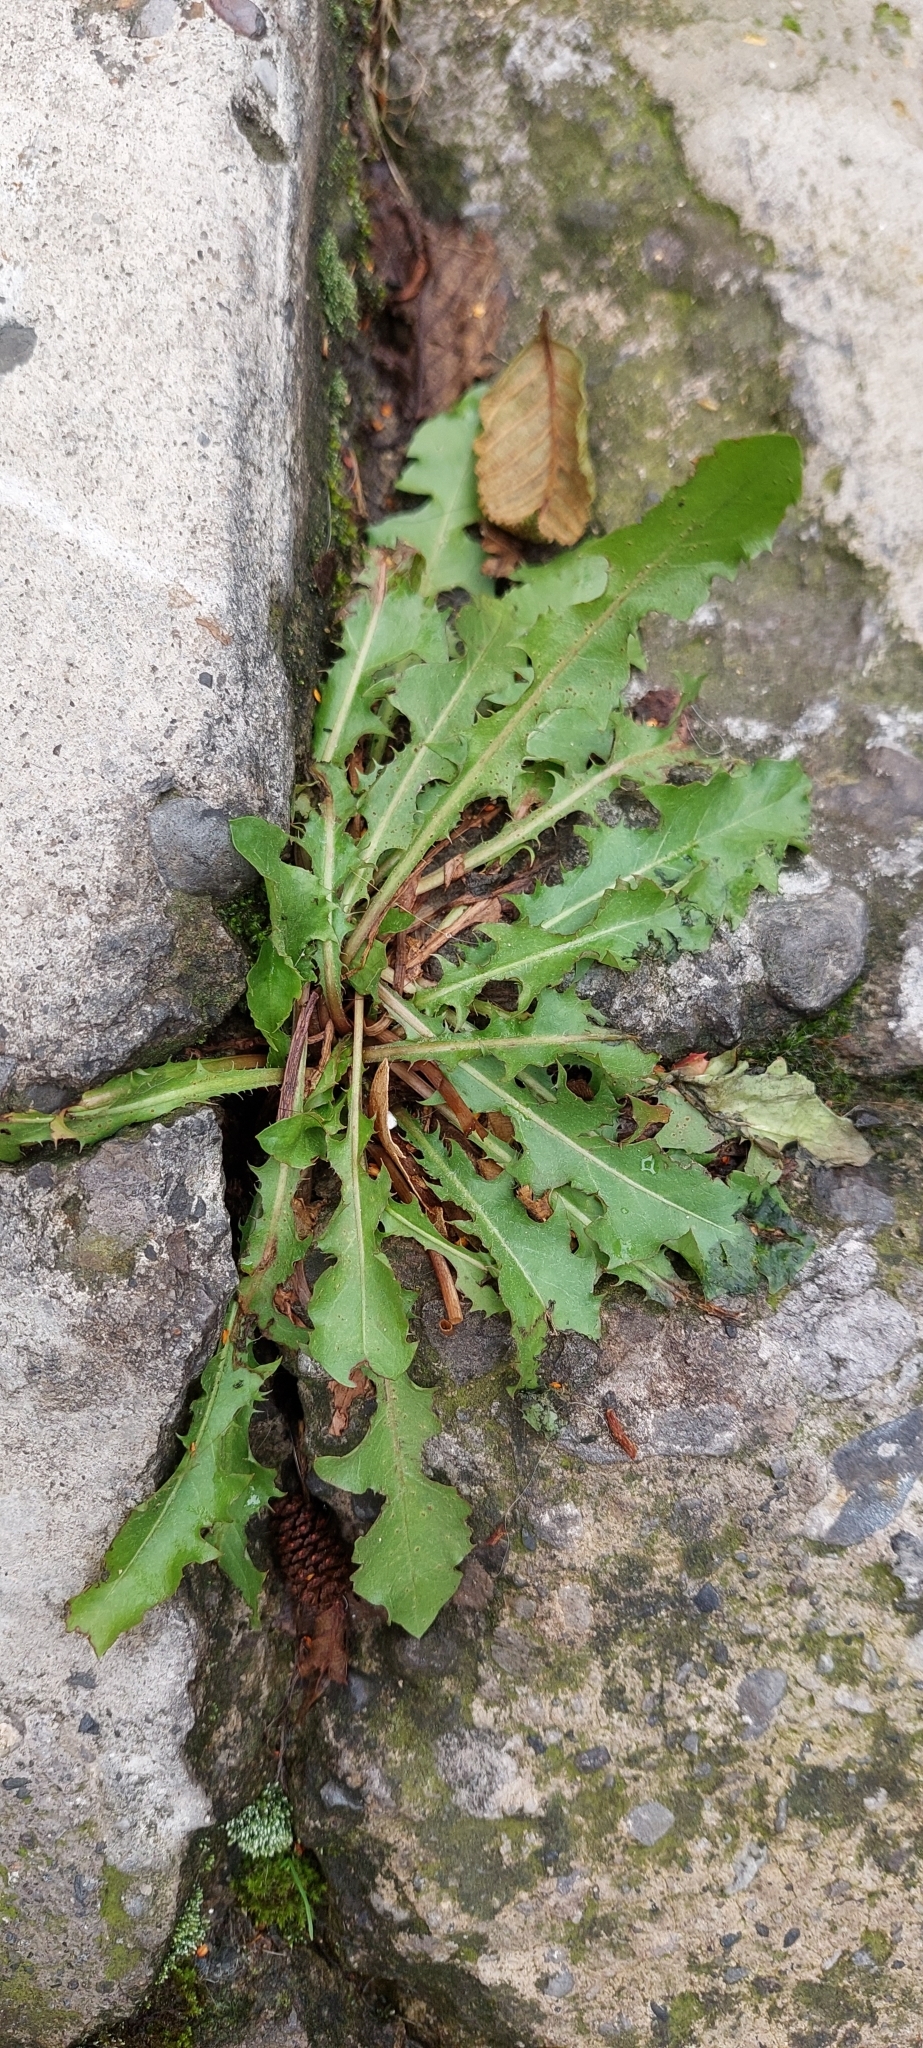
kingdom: Plantae
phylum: Tracheophyta
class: Magnoliopsida
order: Asterales
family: Asteraceae
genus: Taraxacum
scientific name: Taraxacum
